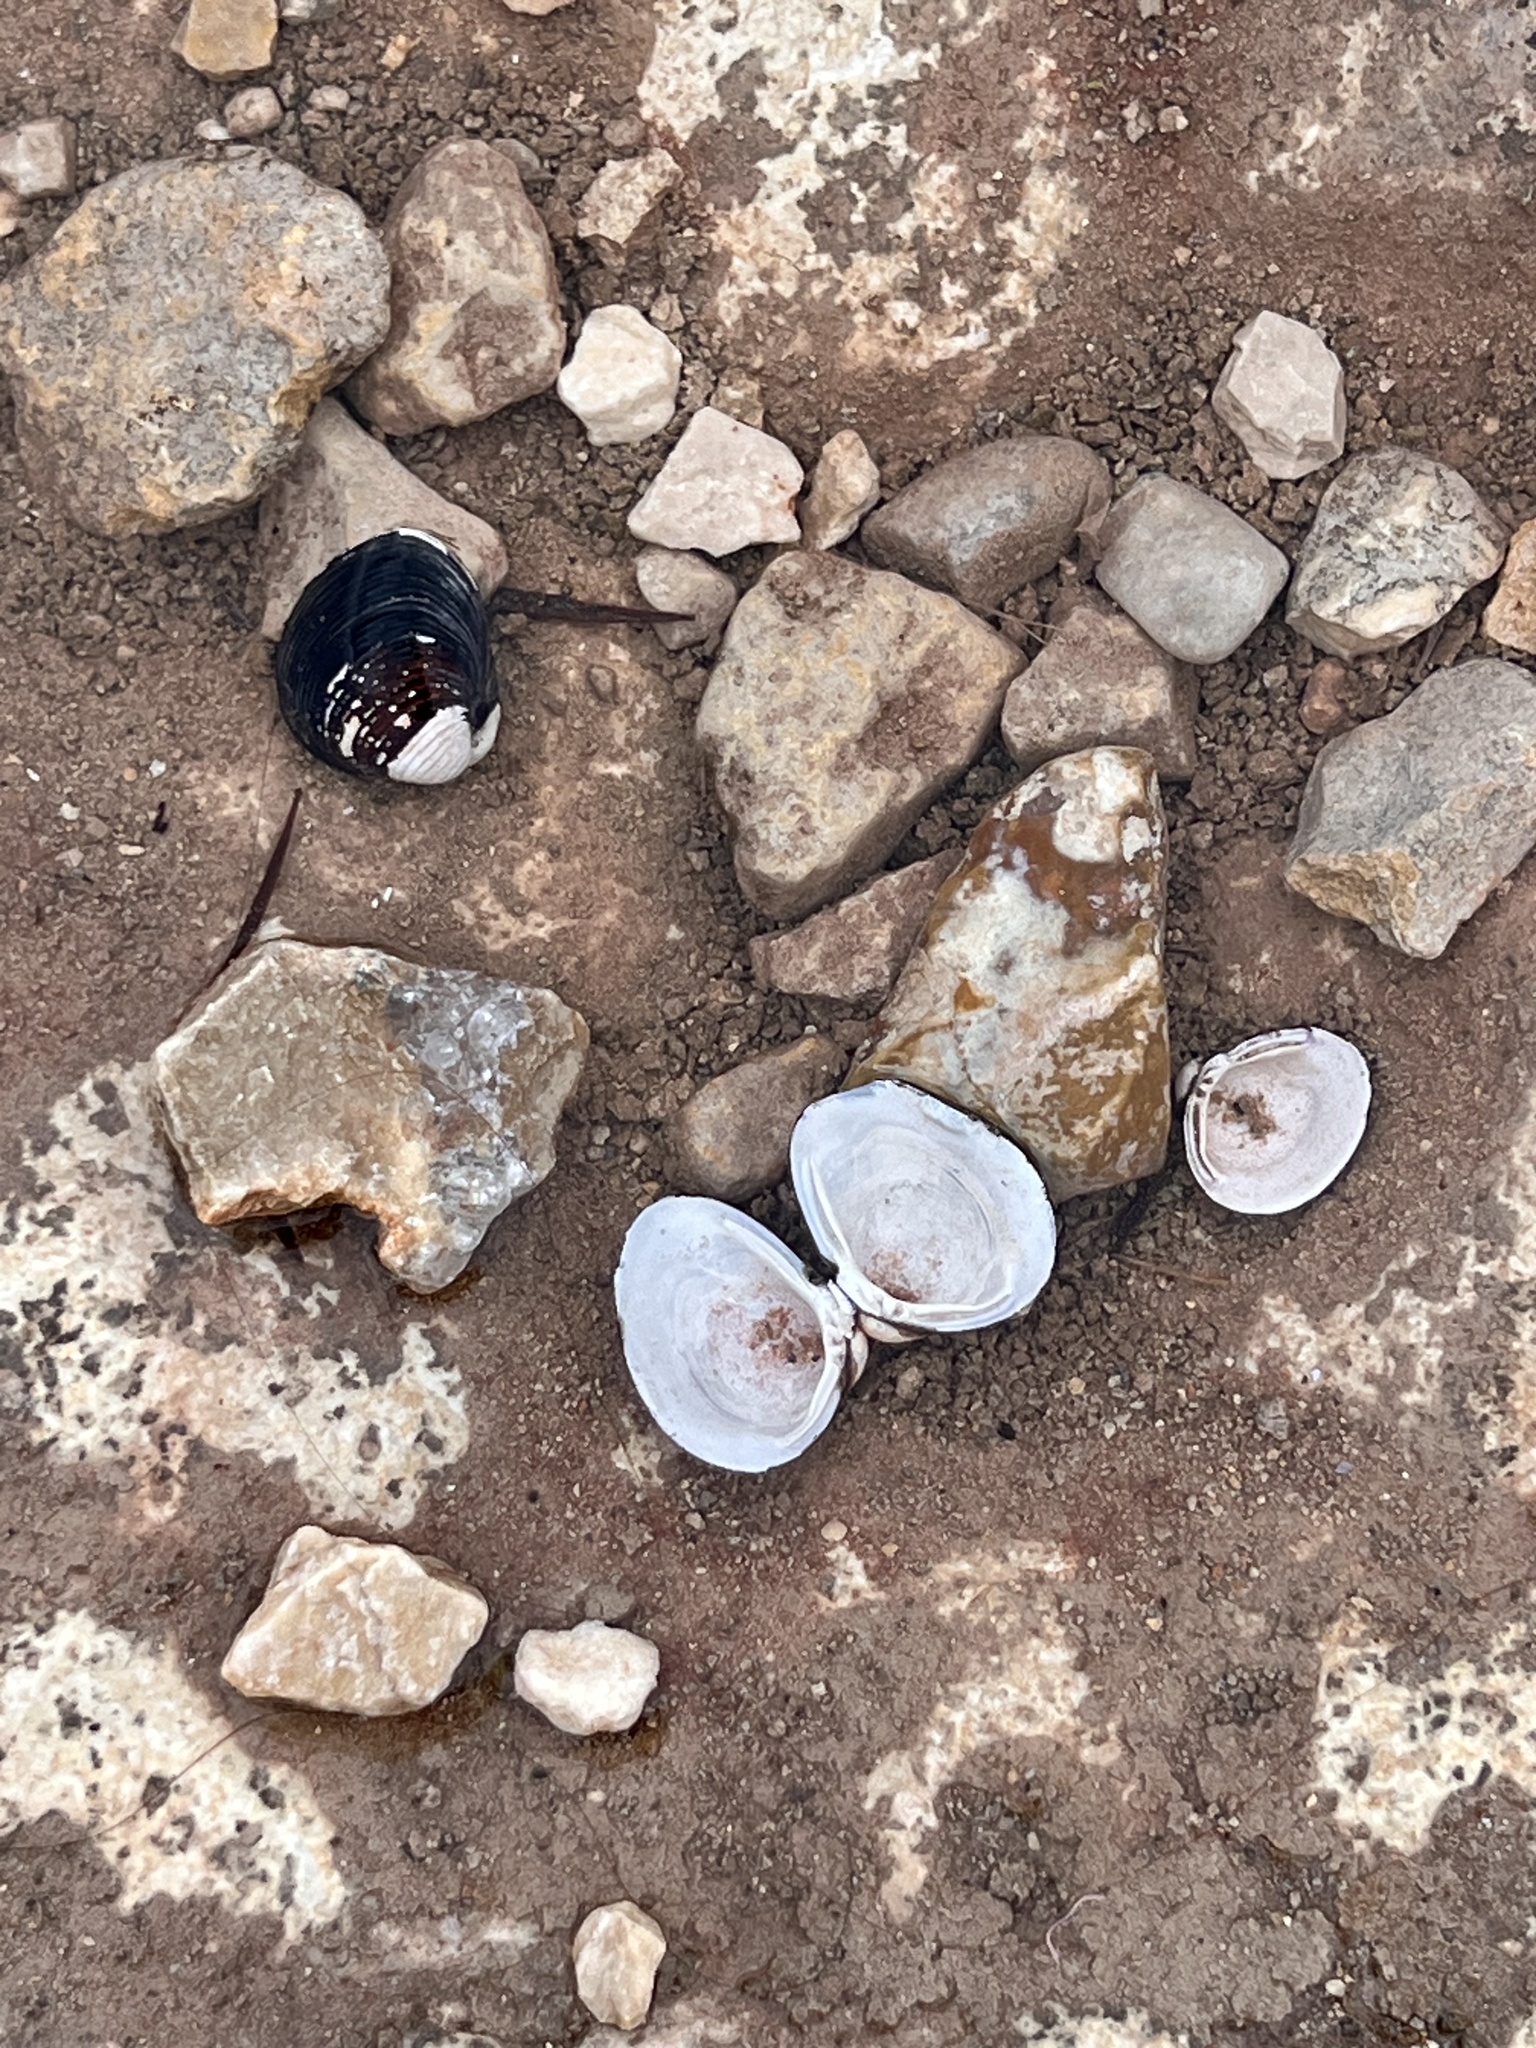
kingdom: Animalia
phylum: Mollusca
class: Bivalvia
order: Venerida
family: Cyrenidae
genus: Corbicula
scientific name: Corbicula fluminea
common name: Asian clam
